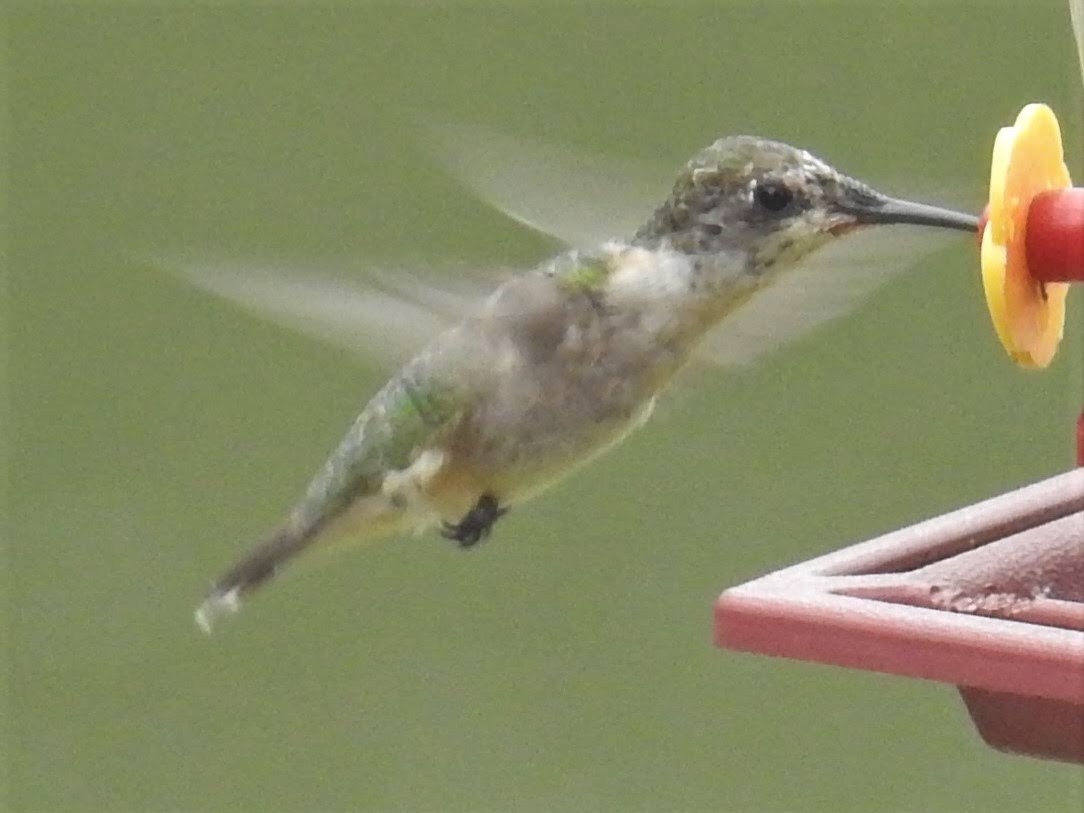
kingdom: Animalia
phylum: Chordata
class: Aves
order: Apodiformes
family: Trochilidae
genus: Archilochus
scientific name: Archilochus colubris
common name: Ruby-throated hummingbird
